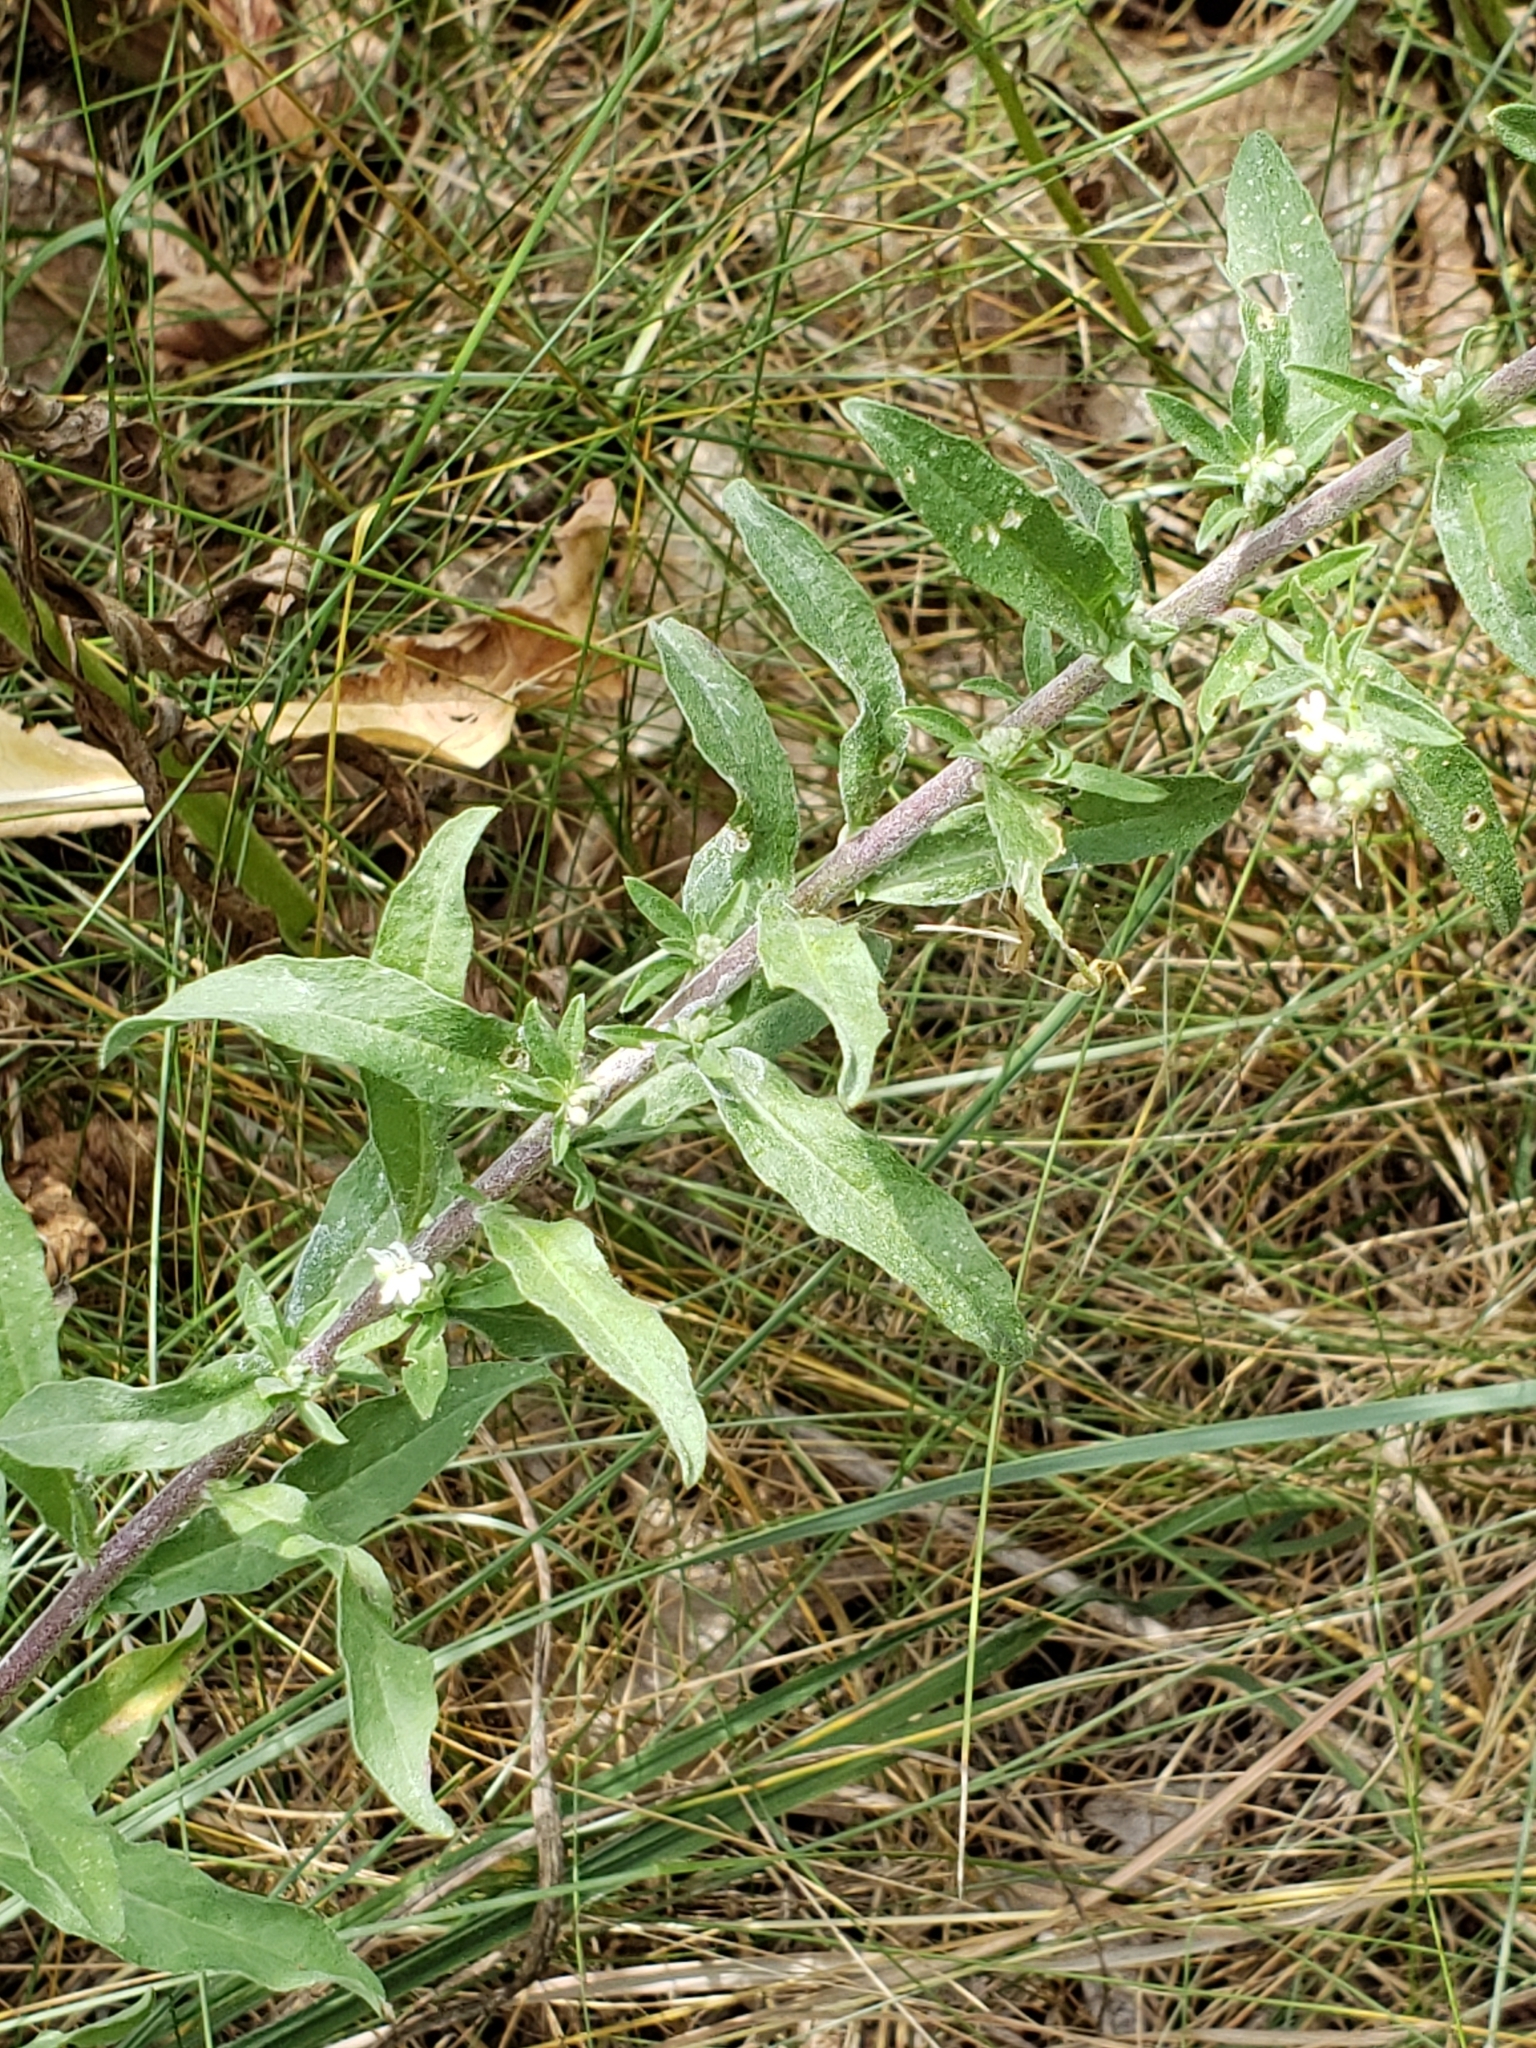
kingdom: Plantae
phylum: Tracheophyta
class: Magnoliopsida
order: Brassicales
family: Brassicaceae
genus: Berteroa
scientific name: Berteroa incana
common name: Hoary alison
